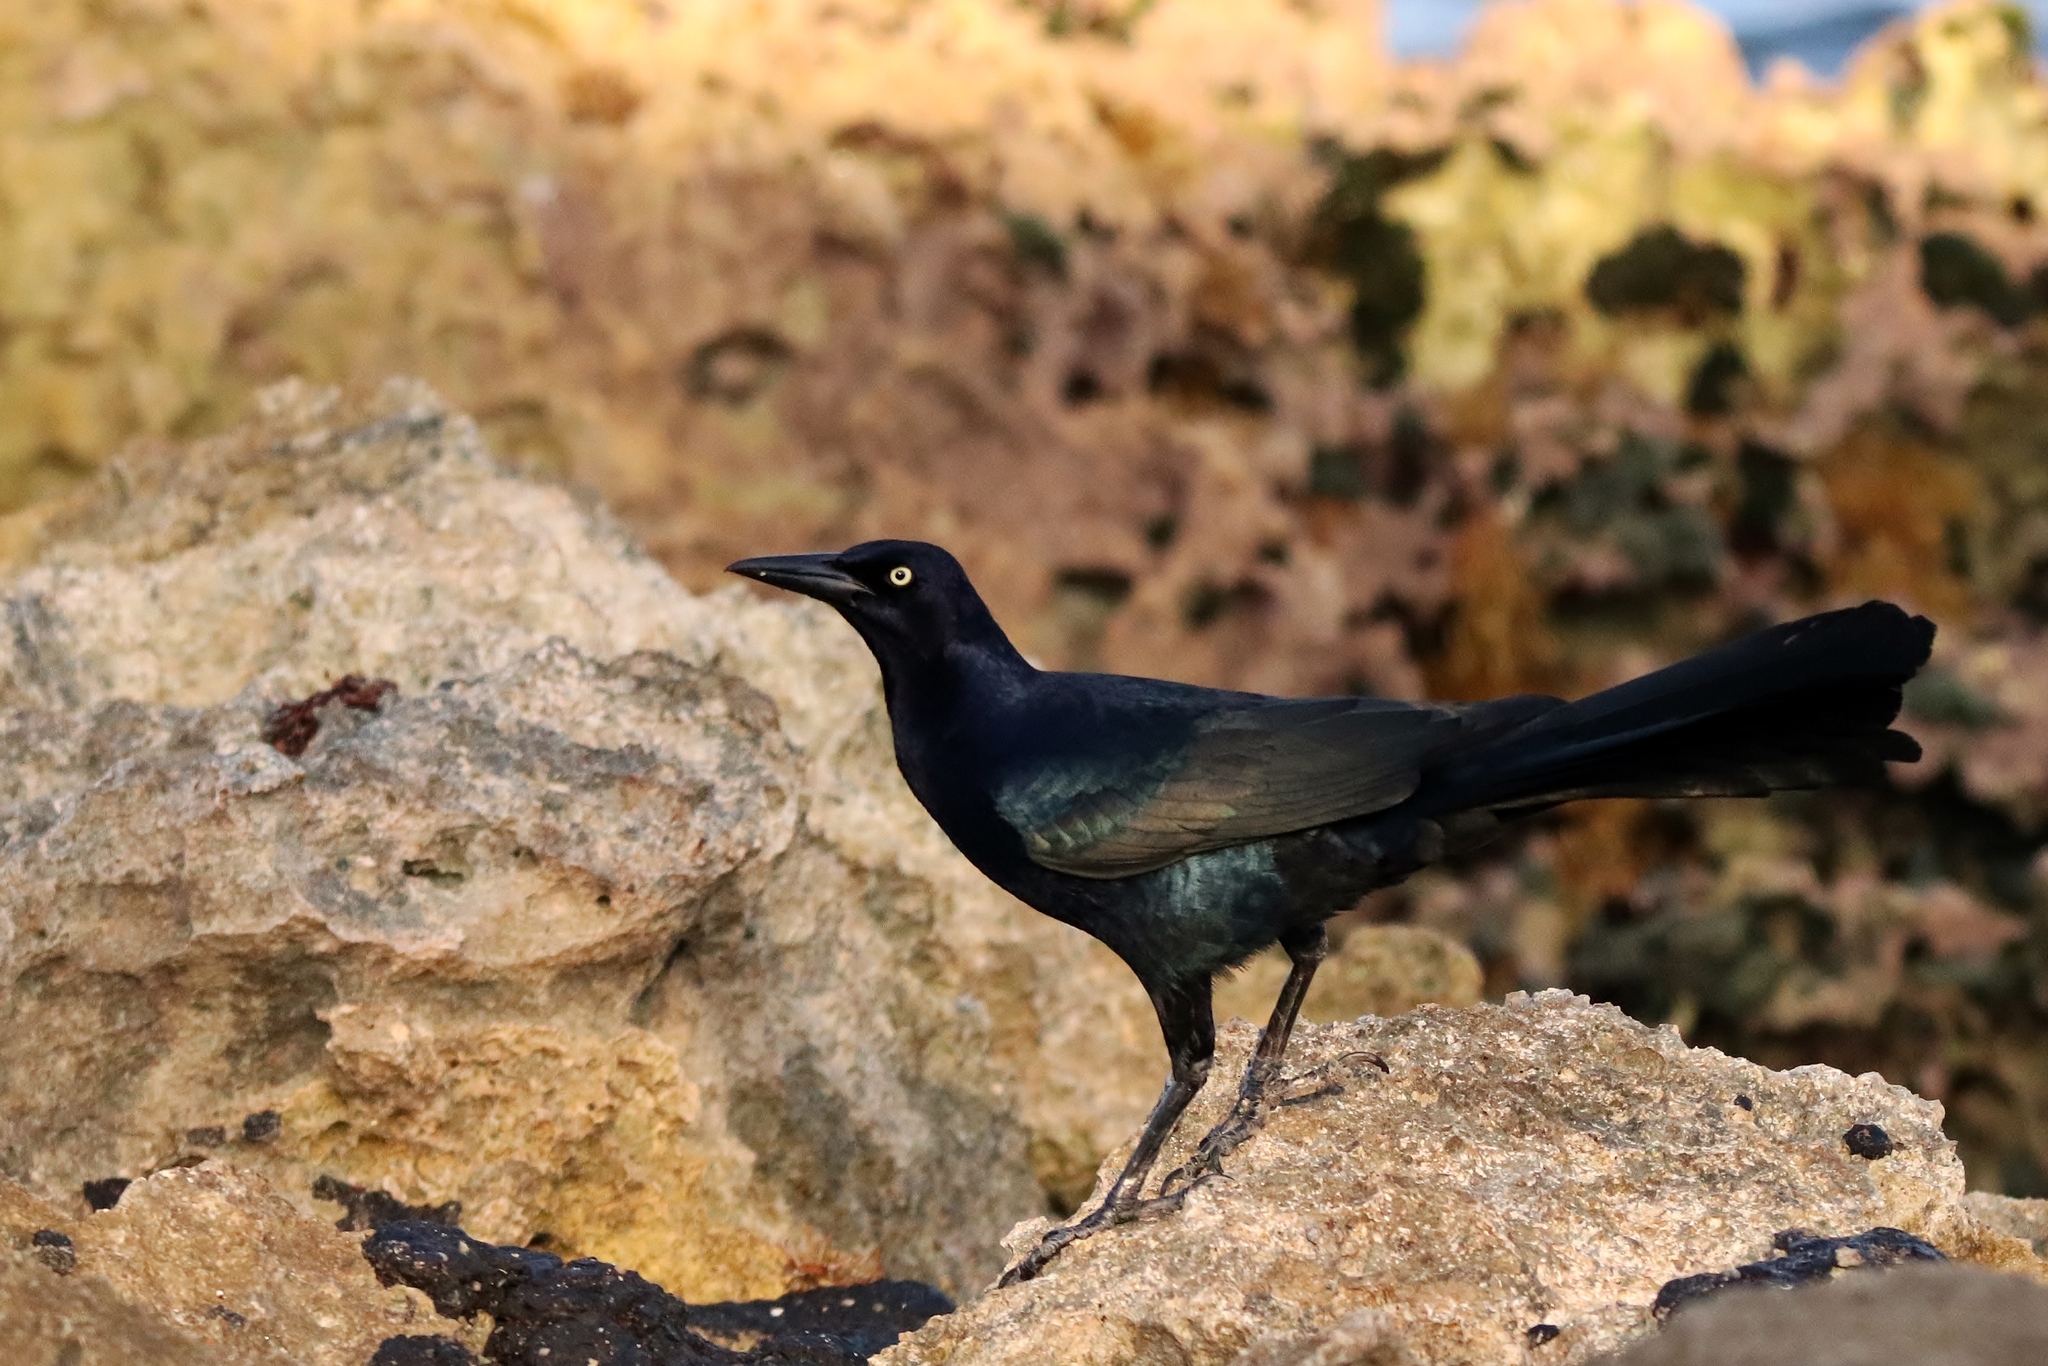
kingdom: Animalia
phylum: Chordata
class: Aves
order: Passeriformes
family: Icteridae
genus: Quiscalus
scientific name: Quiscalus mexicanus
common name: Great-tailed grackle
